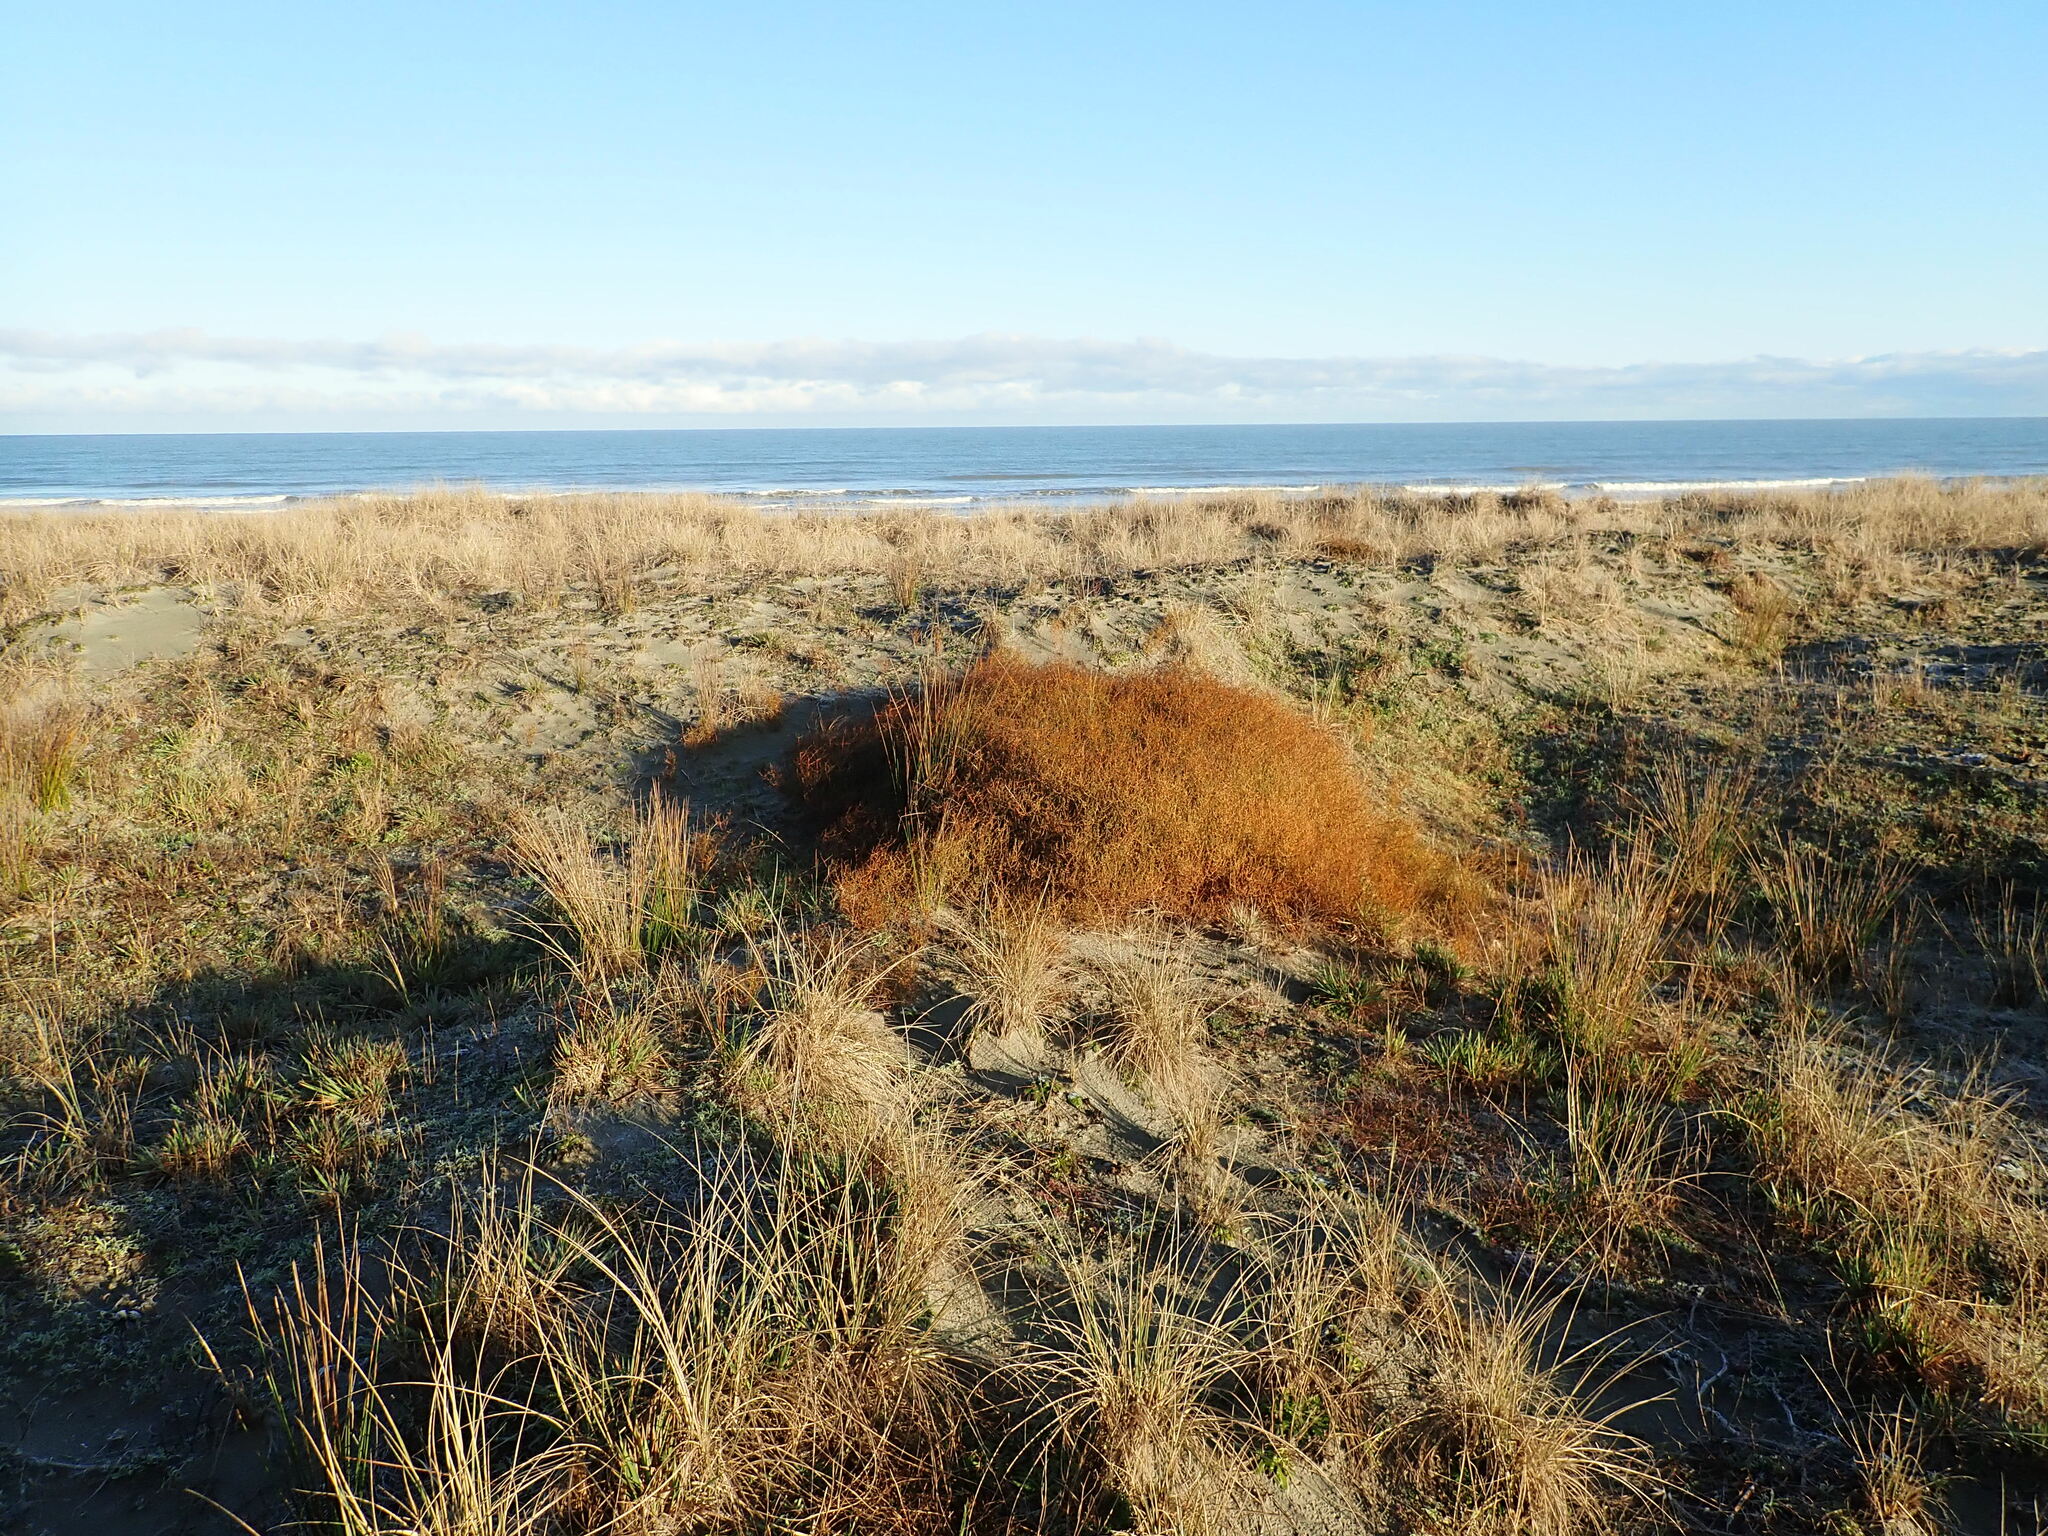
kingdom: Plantae
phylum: Tracheophyta
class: Magnoliopsida
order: Gentianales
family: Rubiaceae
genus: Coprosma
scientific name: Coprosma acerosa
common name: Sand coprosma
